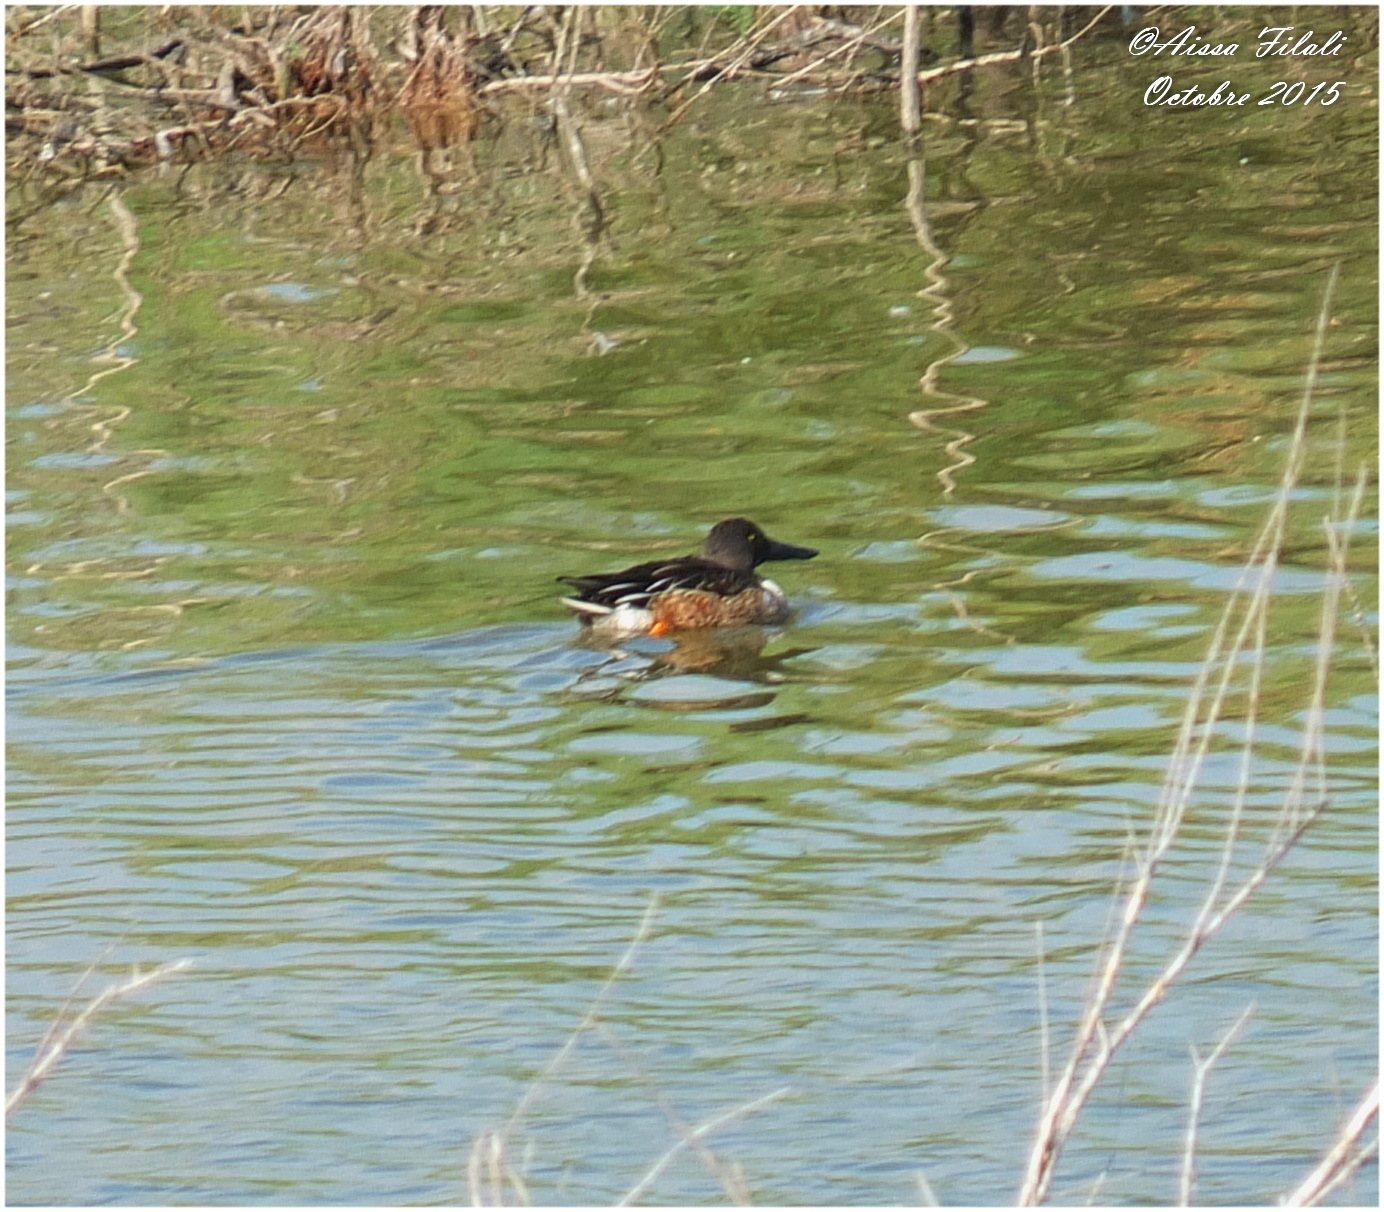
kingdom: Animalia
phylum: Chordata
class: Aves
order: Anseriformes
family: Anatidae
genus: Spatula
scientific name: Spatula clypeata
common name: Northern shoveler
